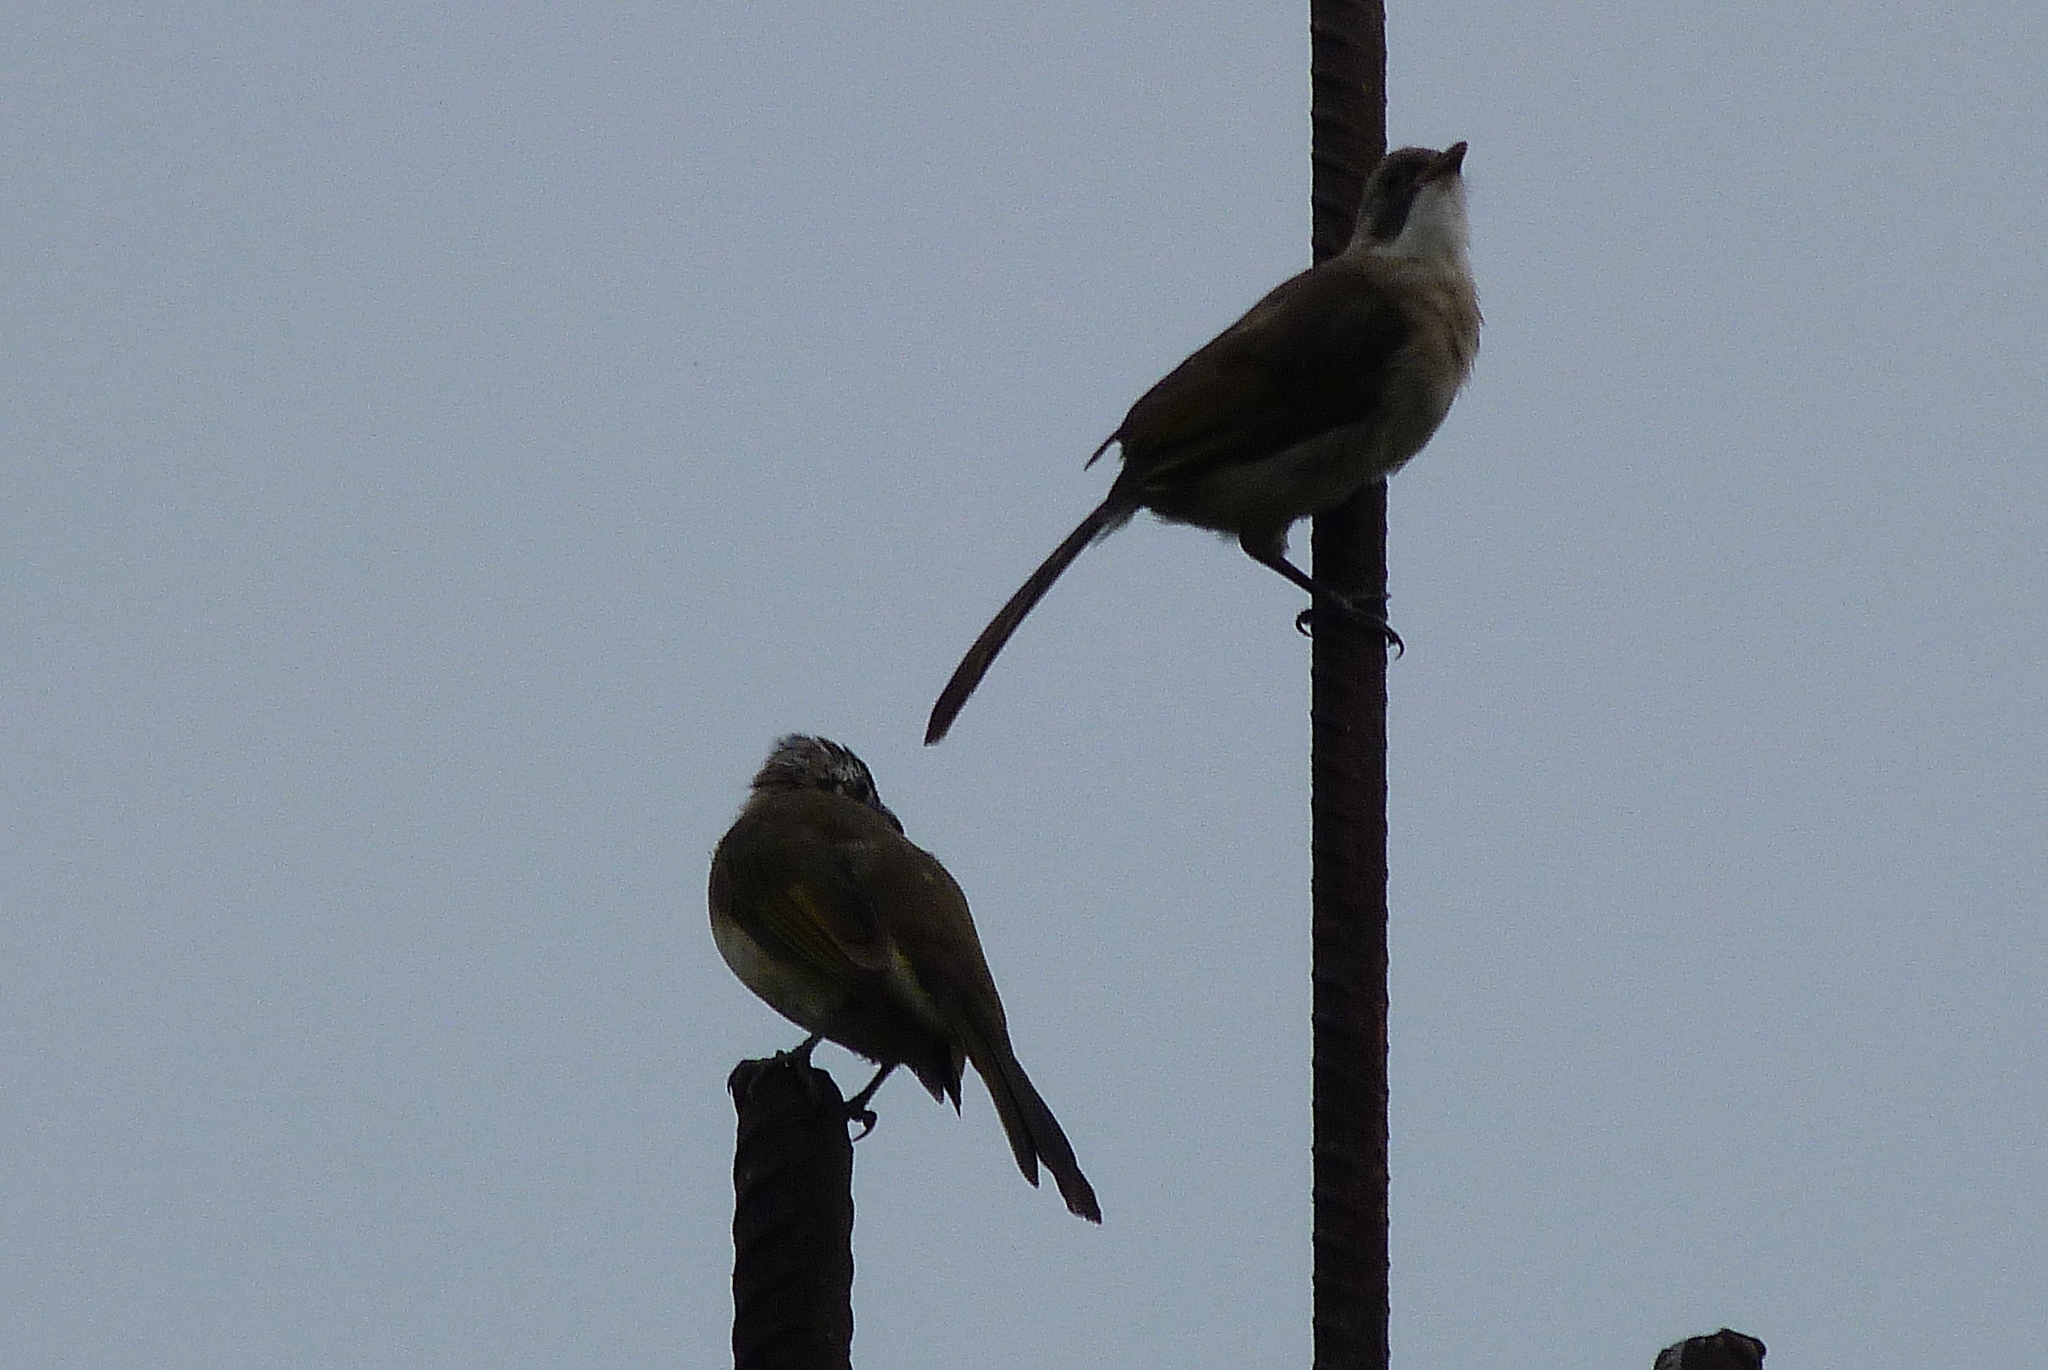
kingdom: Animalia
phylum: Chordata
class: Aves
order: Passeriformes
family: Pycnonotidae
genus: Pycnonotus
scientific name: Pycnonotus sinensis
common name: Light-vented bulbul
